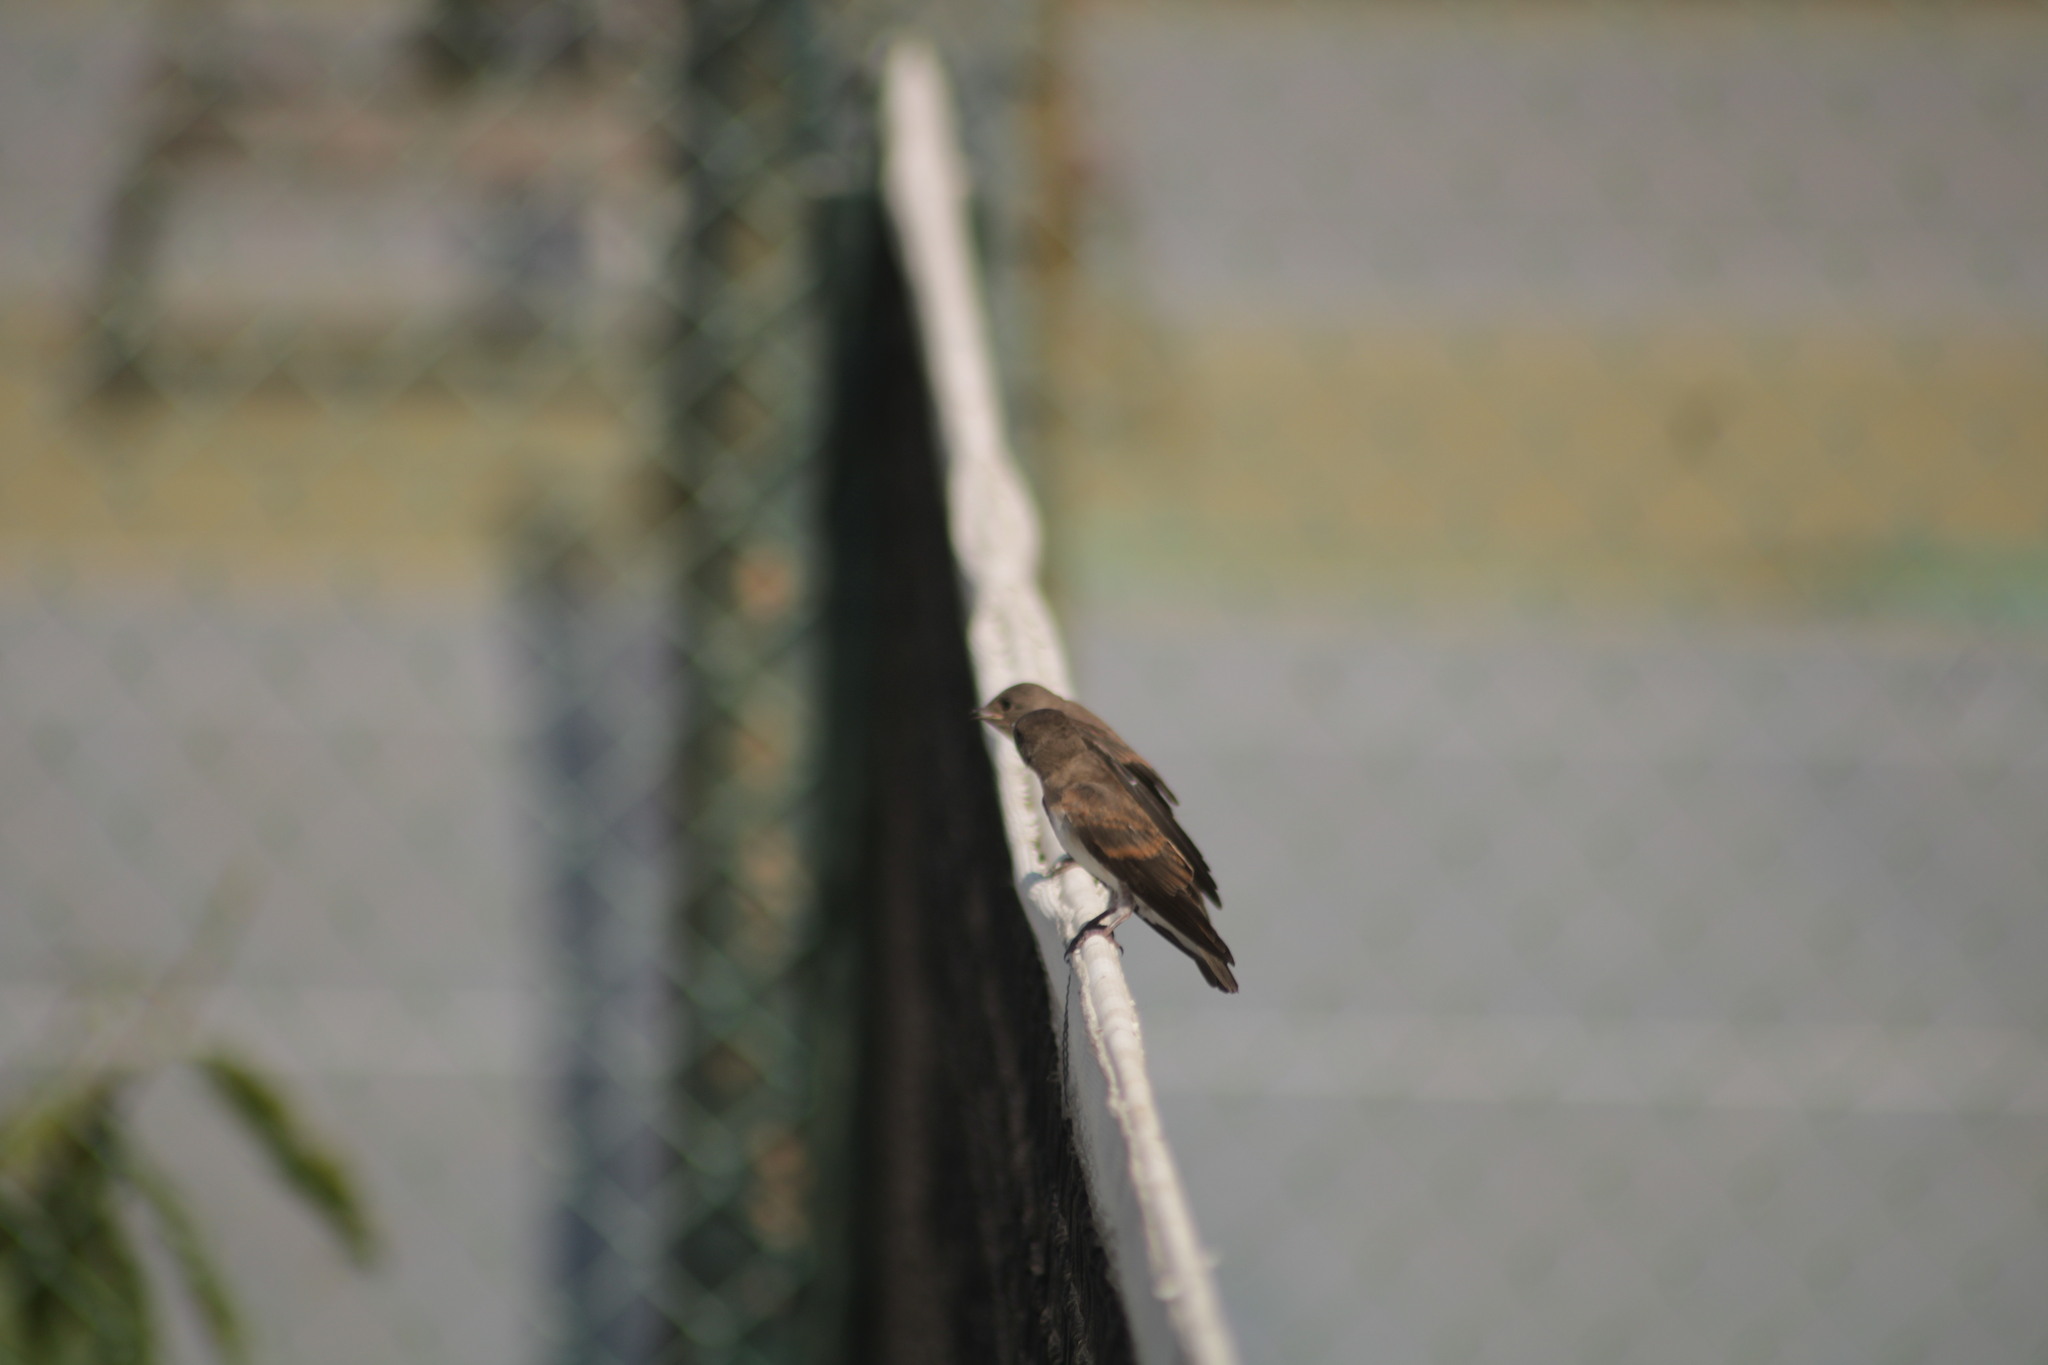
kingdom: Animalia
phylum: Chordata
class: Aves
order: Passeriformes
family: Hirundinidae
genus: Stelgidopteryx
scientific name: Stelgidopteryx serripennis
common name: Northern rough-winged swallow
